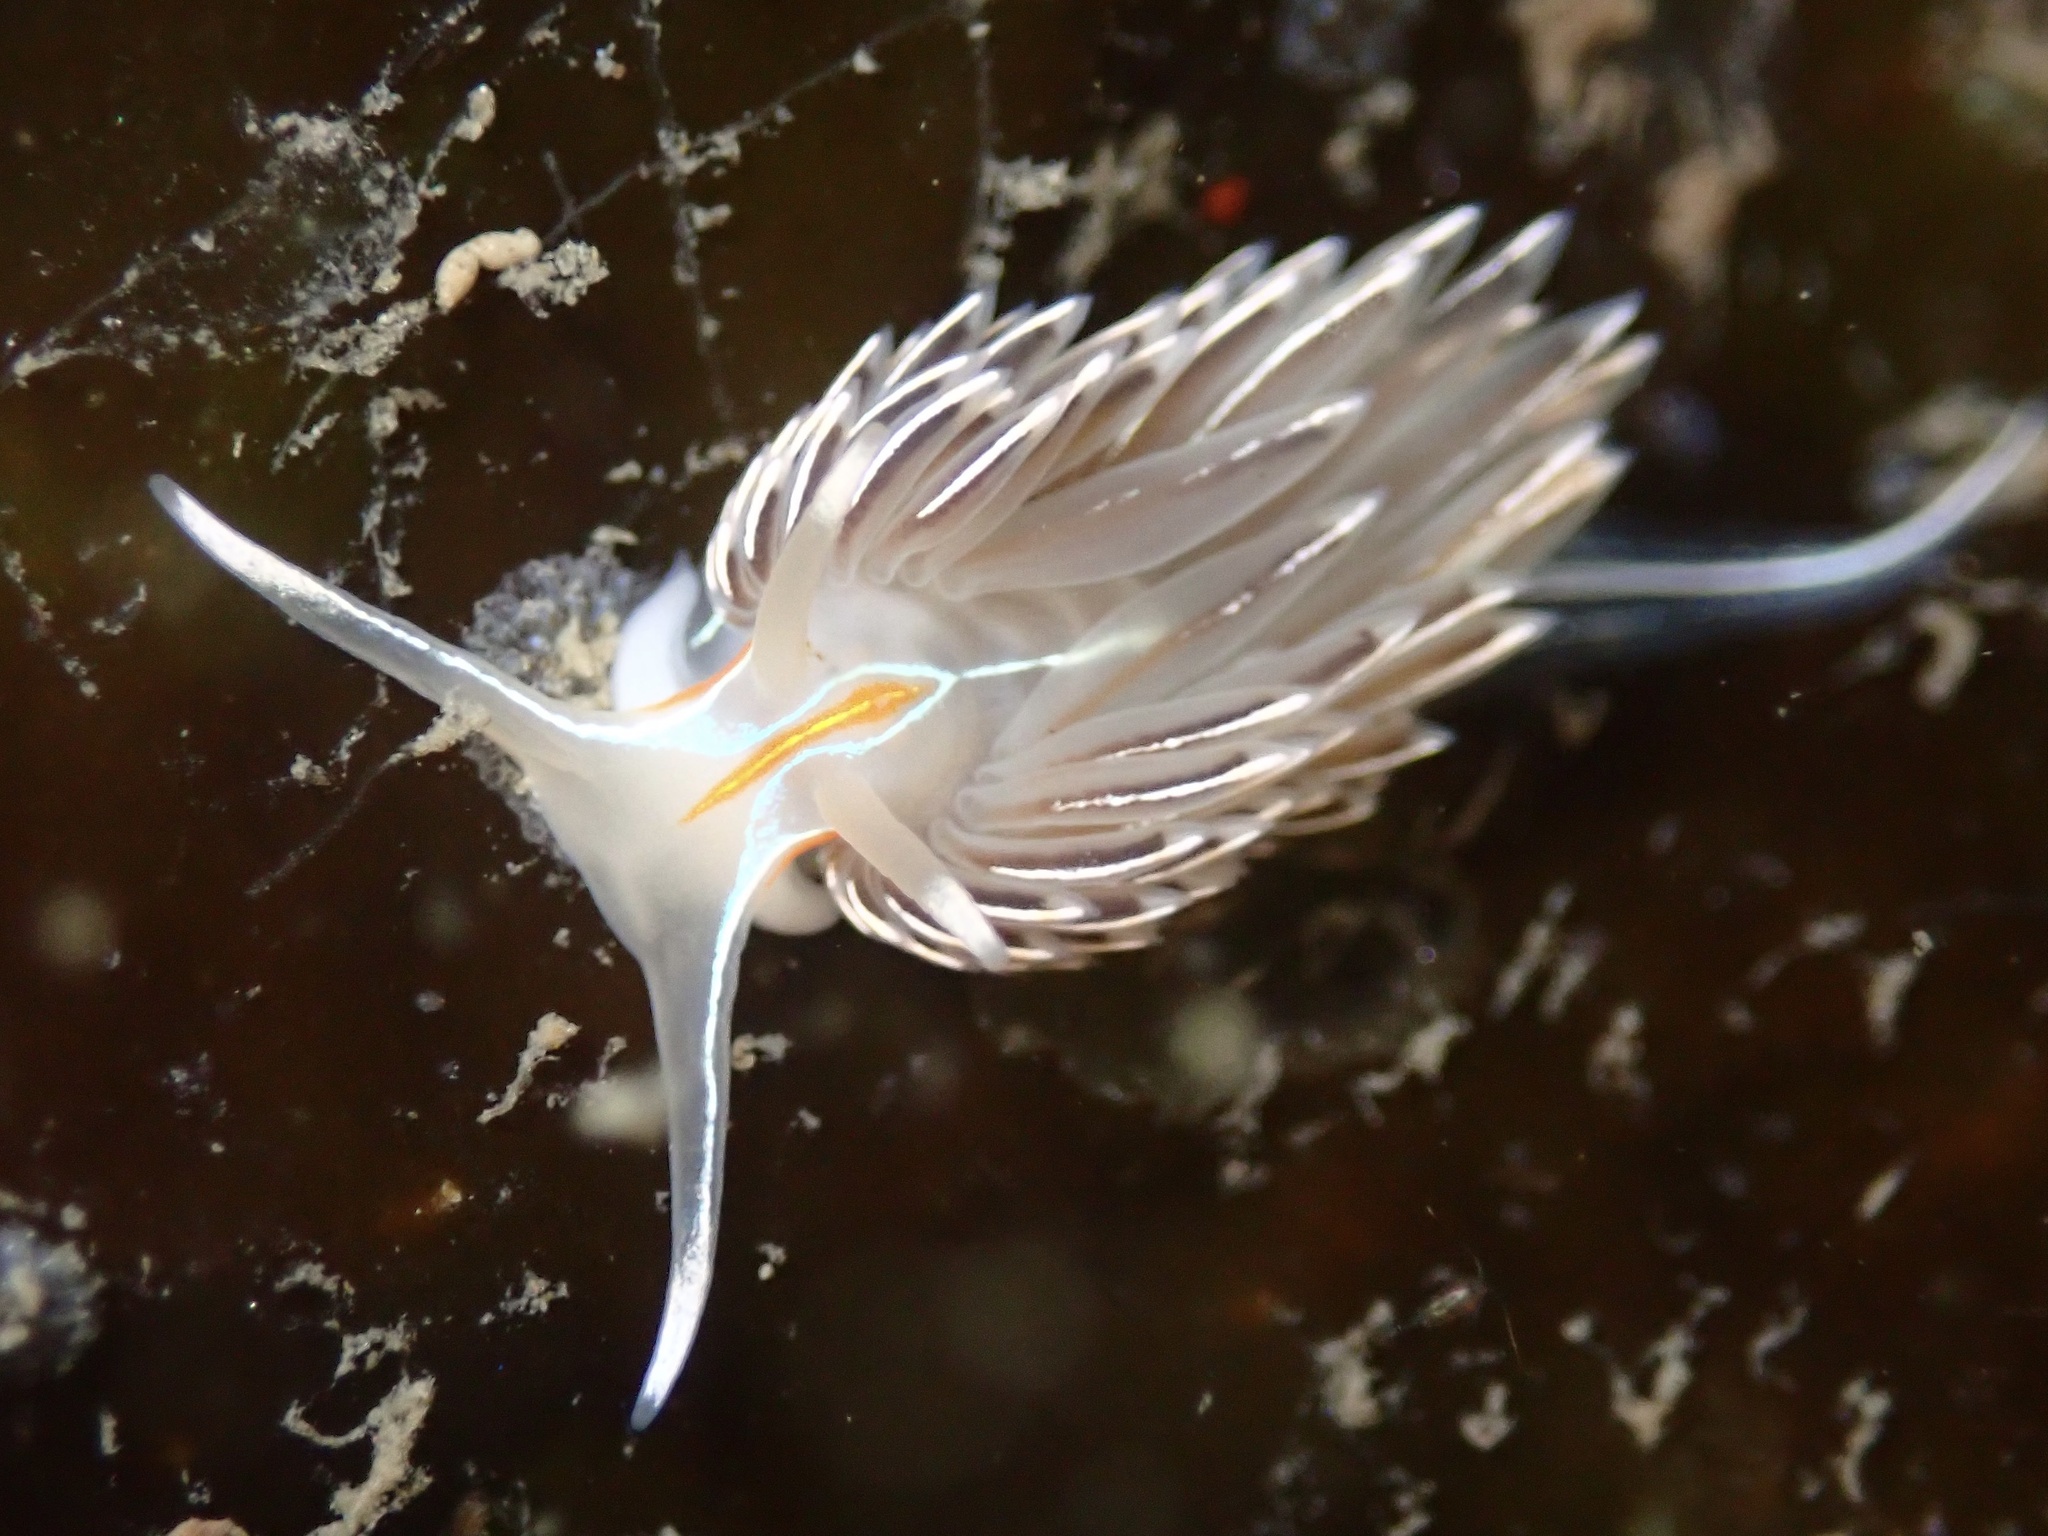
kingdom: Animalia
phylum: Mollusca
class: Gastropoda
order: Nudibranchia
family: Myrrhinidae
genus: Hermissenda
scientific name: Hermissenda crassicornis
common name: Hermissenda
